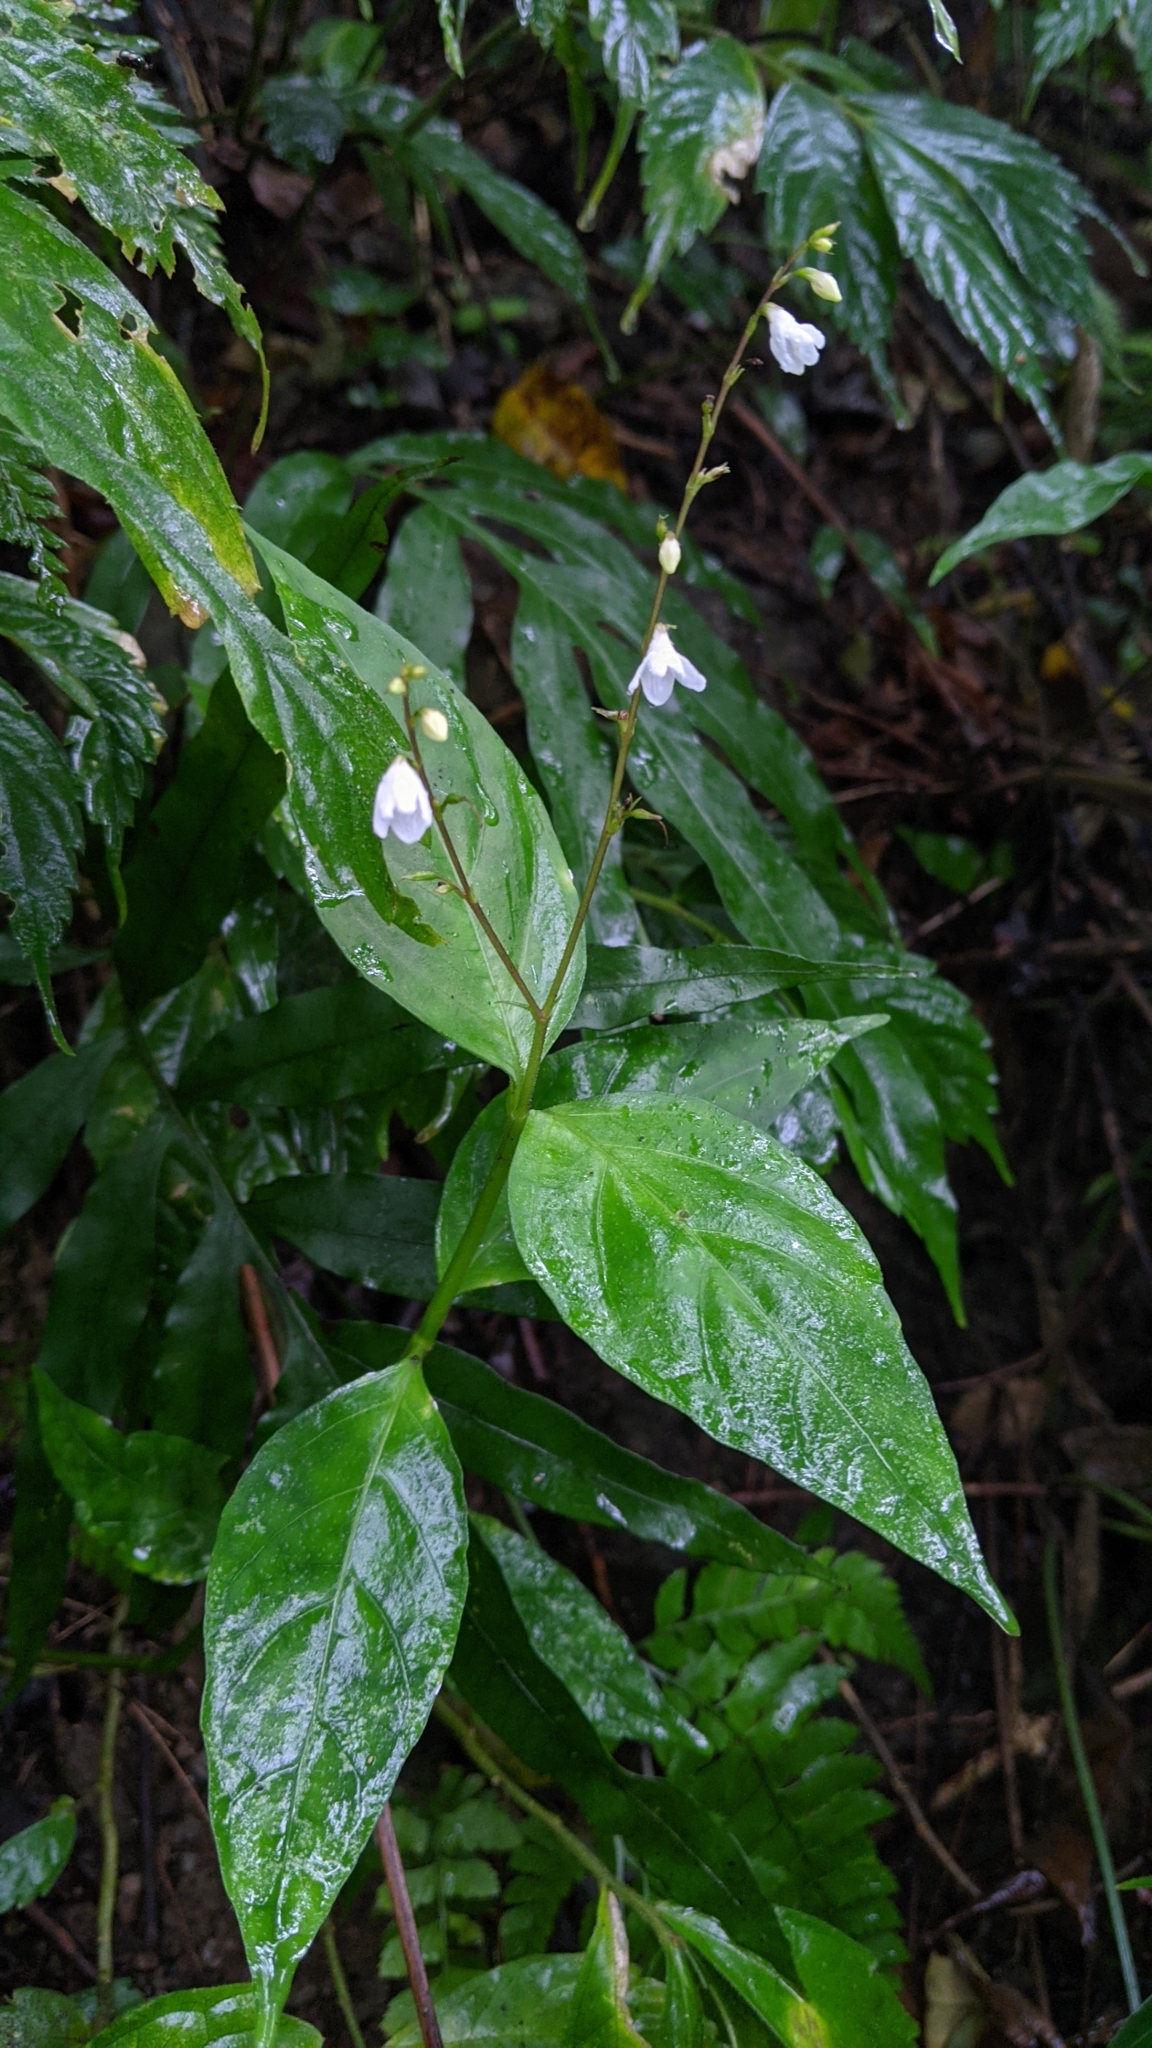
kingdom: Plantae
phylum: Tracheophyta
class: Magnoliopsida
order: Lamiales
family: Acanthaceae
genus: Codonacanthus
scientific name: Codonacanthus pauciflorus
